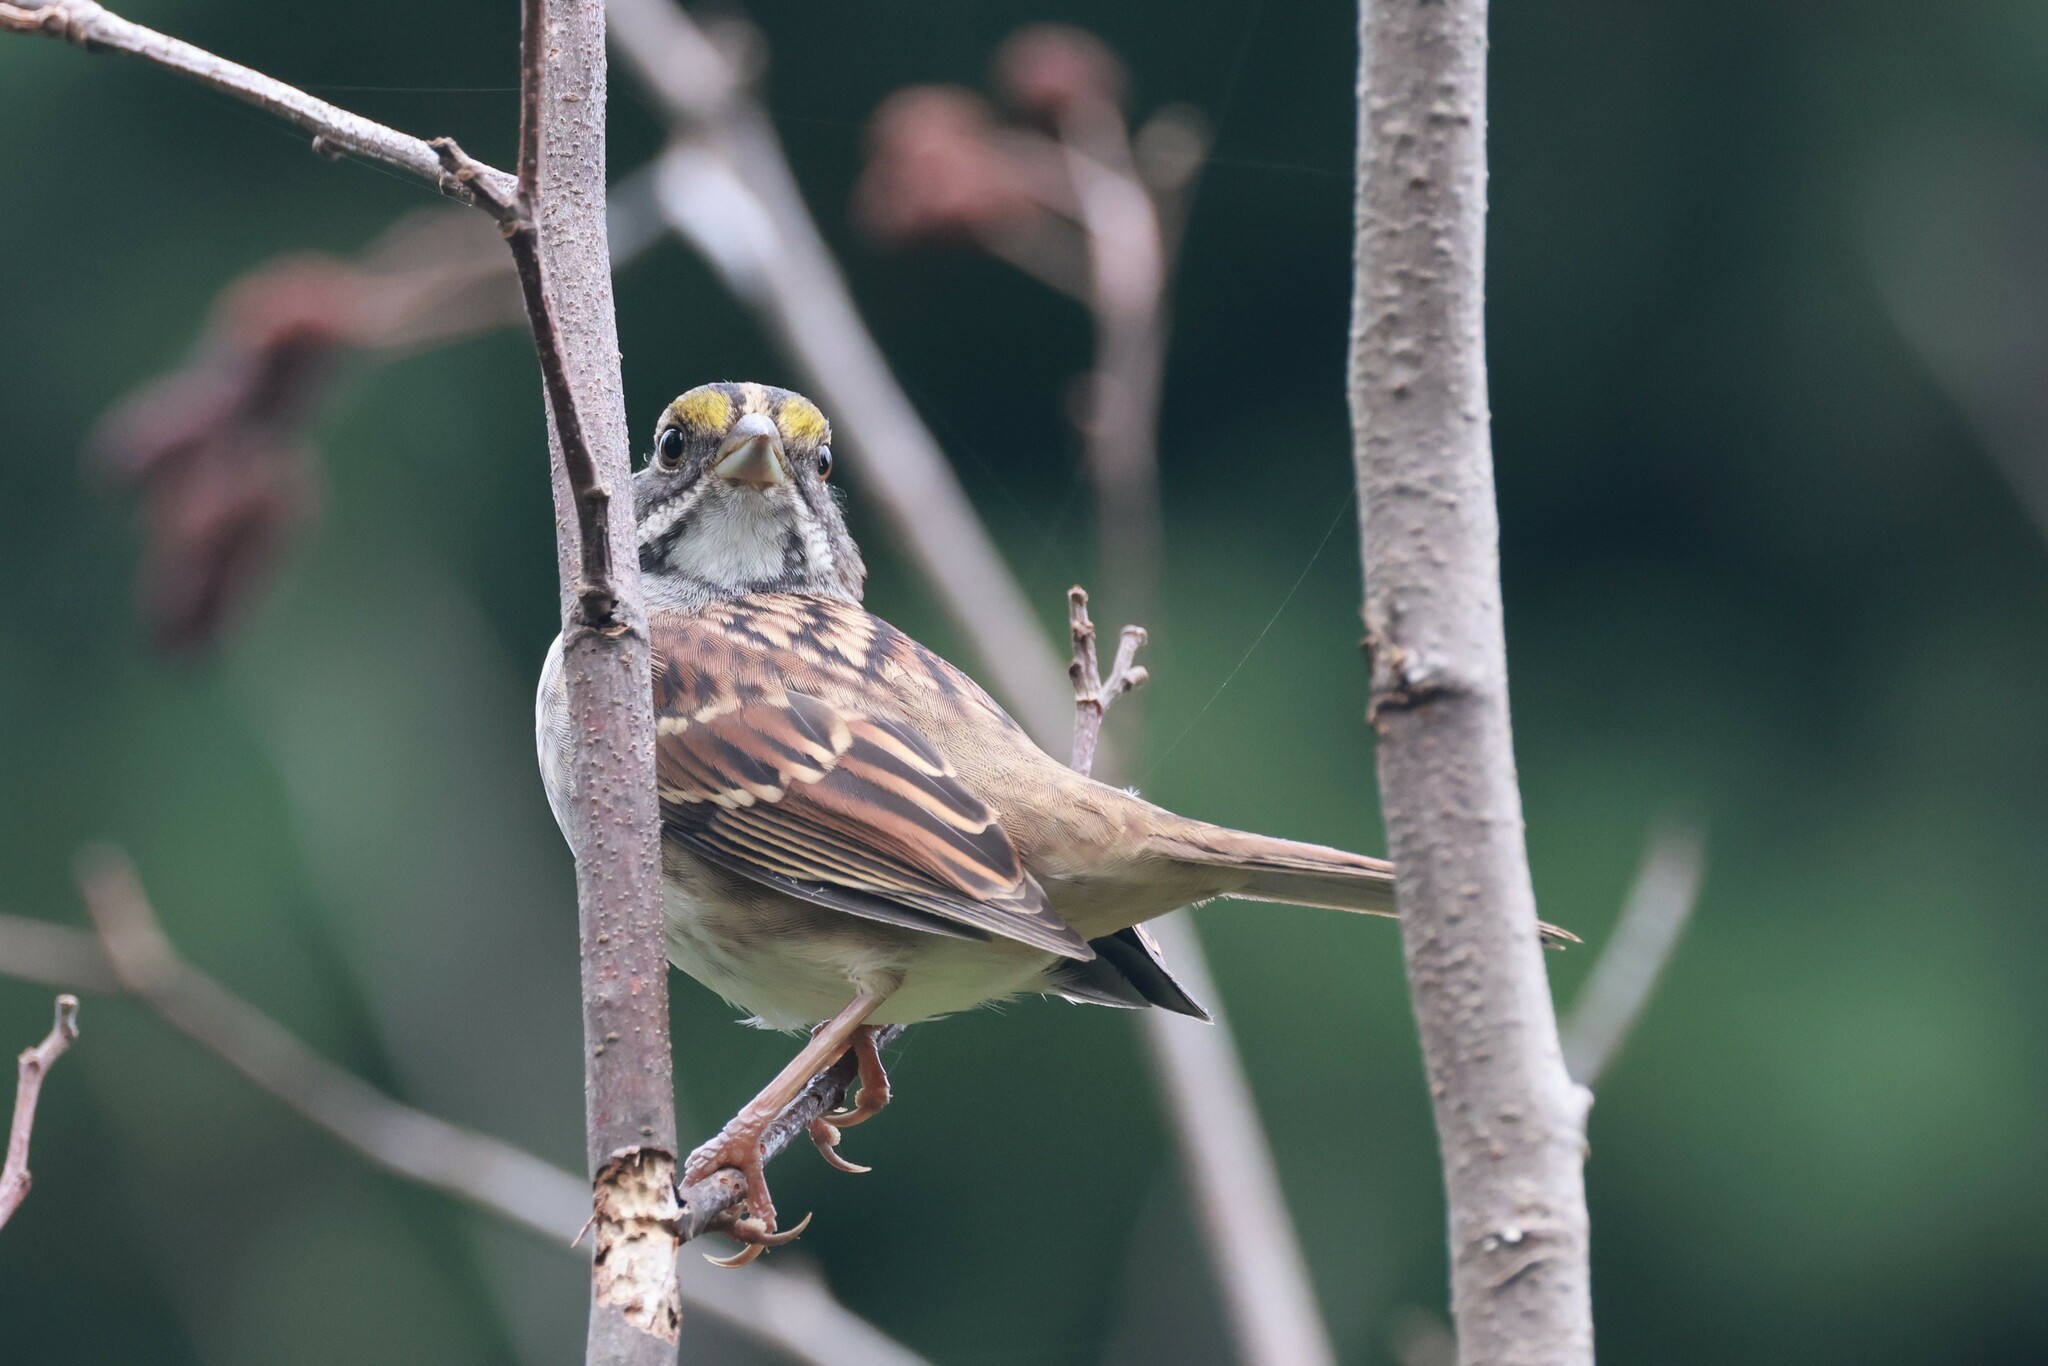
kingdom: Animalia
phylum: Chordata
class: Aves
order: Passeriformes
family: Passerellidae
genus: Zonotrichia
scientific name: Zonotrichia albicollis
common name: White-throated sparrow
